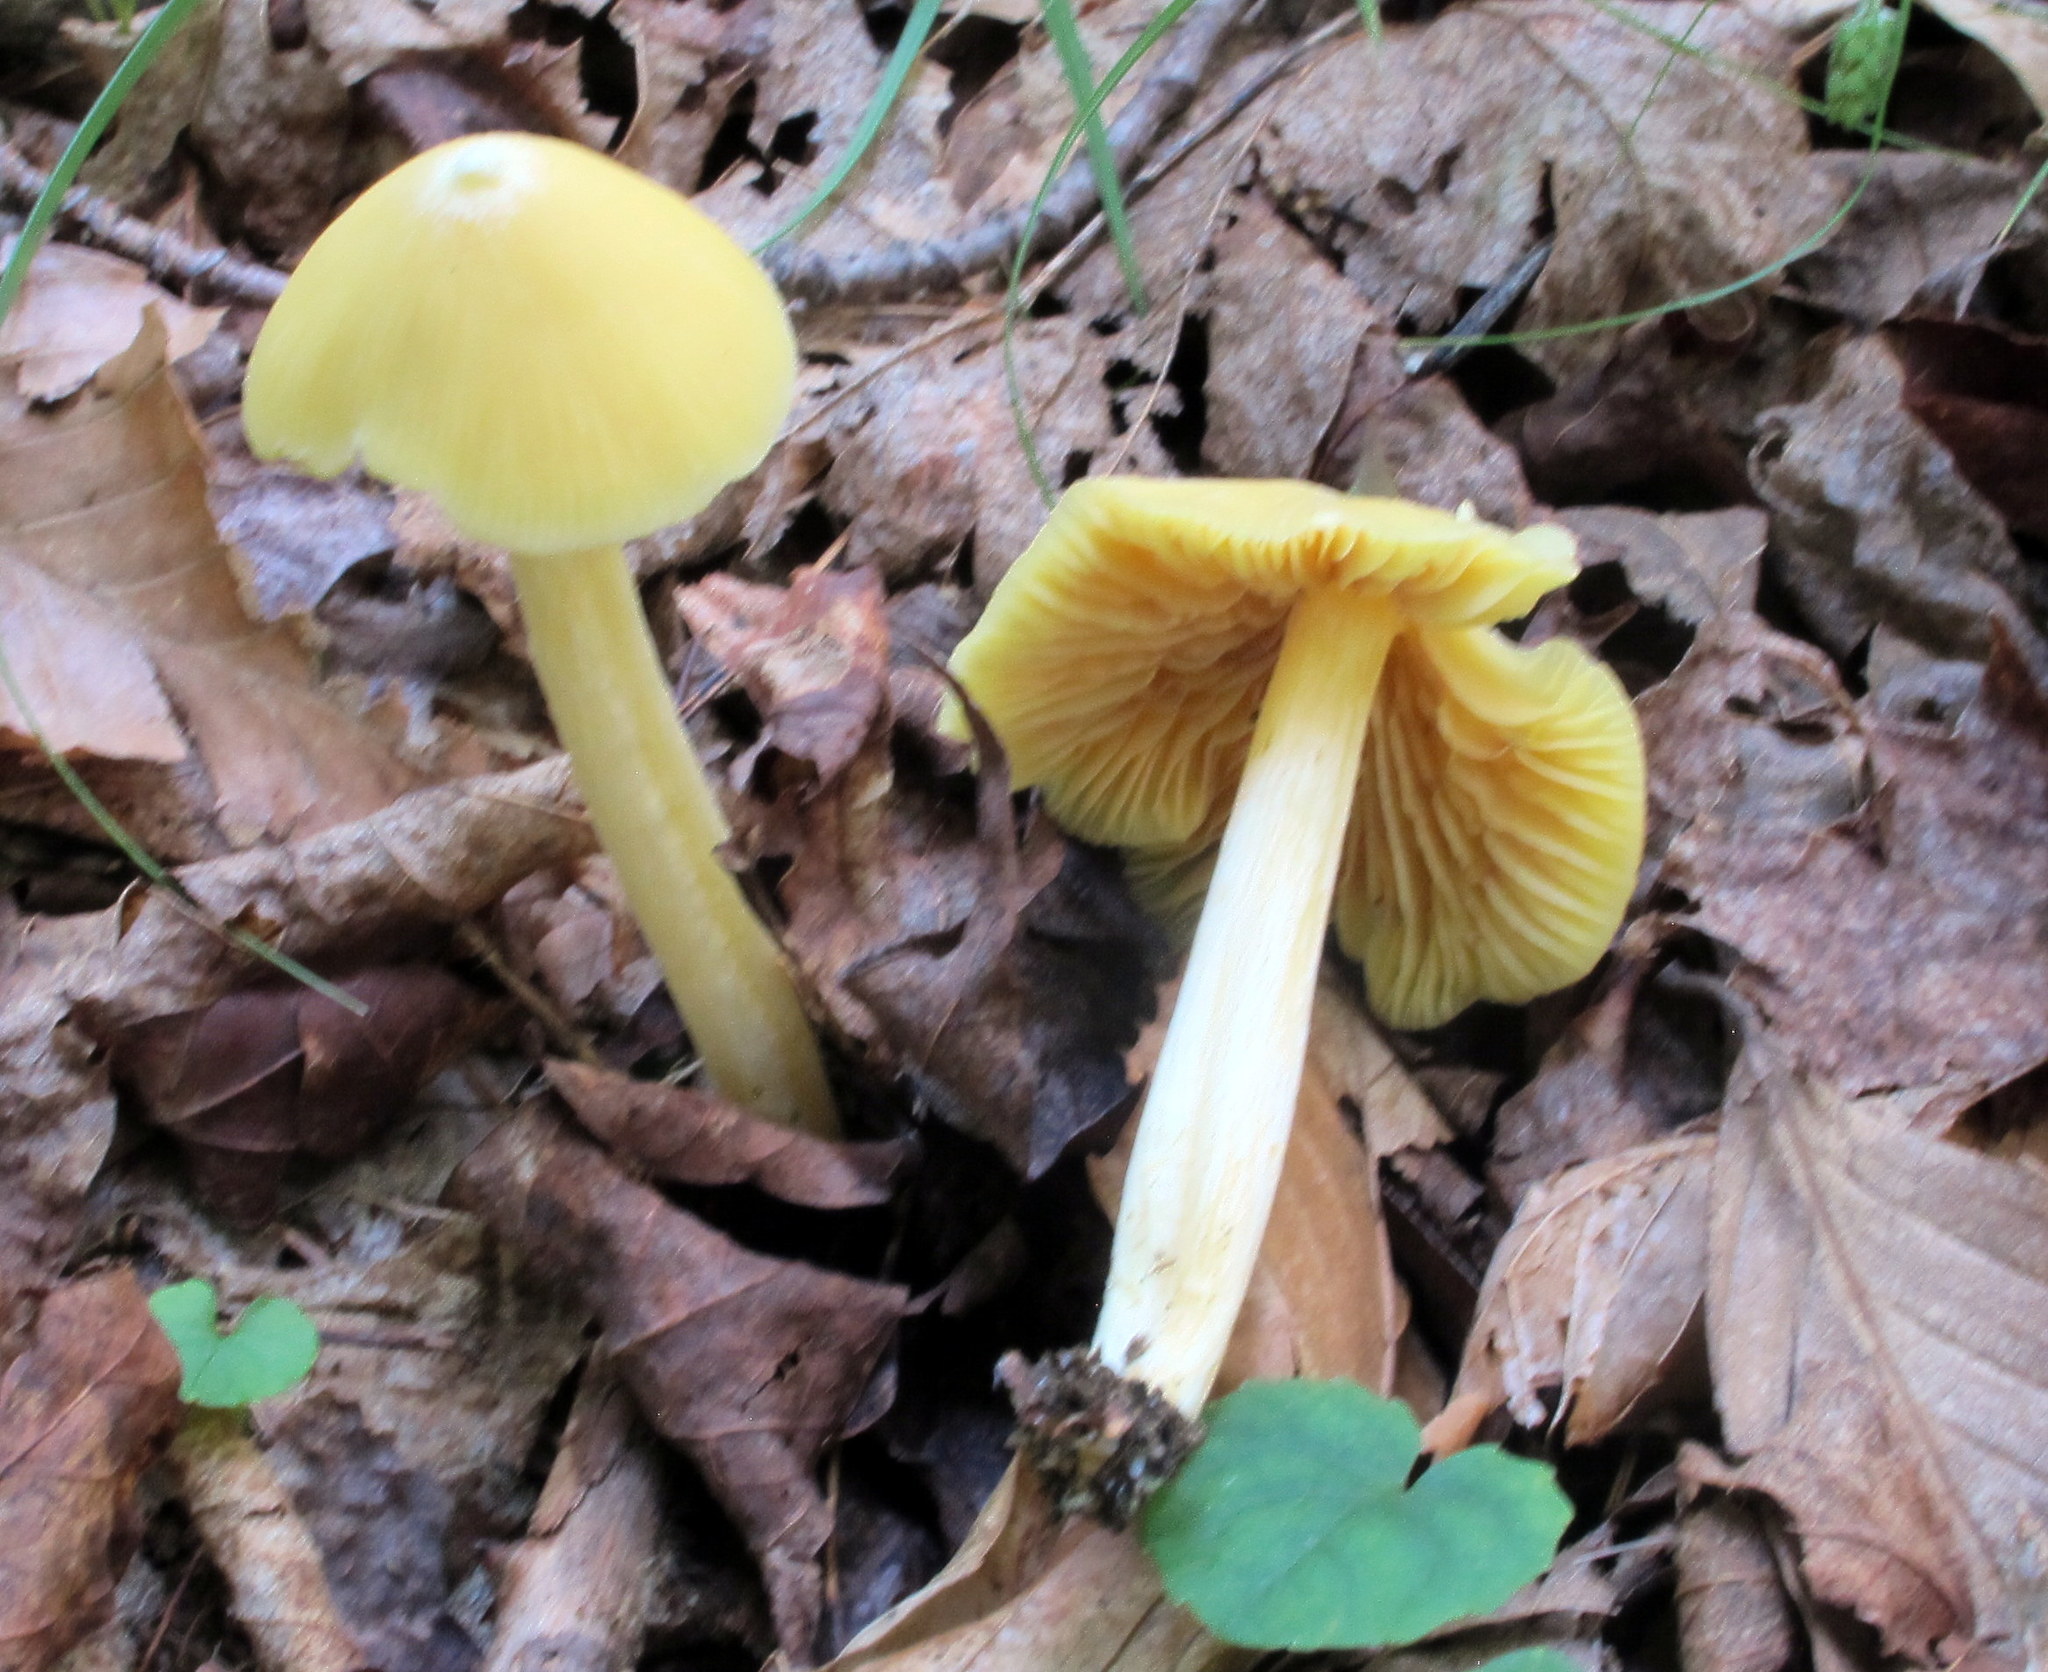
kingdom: Fungi
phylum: Basidiomycota
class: Agaricomycetes
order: Agaricales
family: Entolomataceae
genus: Entoloma
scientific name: Entoloma murrayi
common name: Yellow unicorn entoloma
